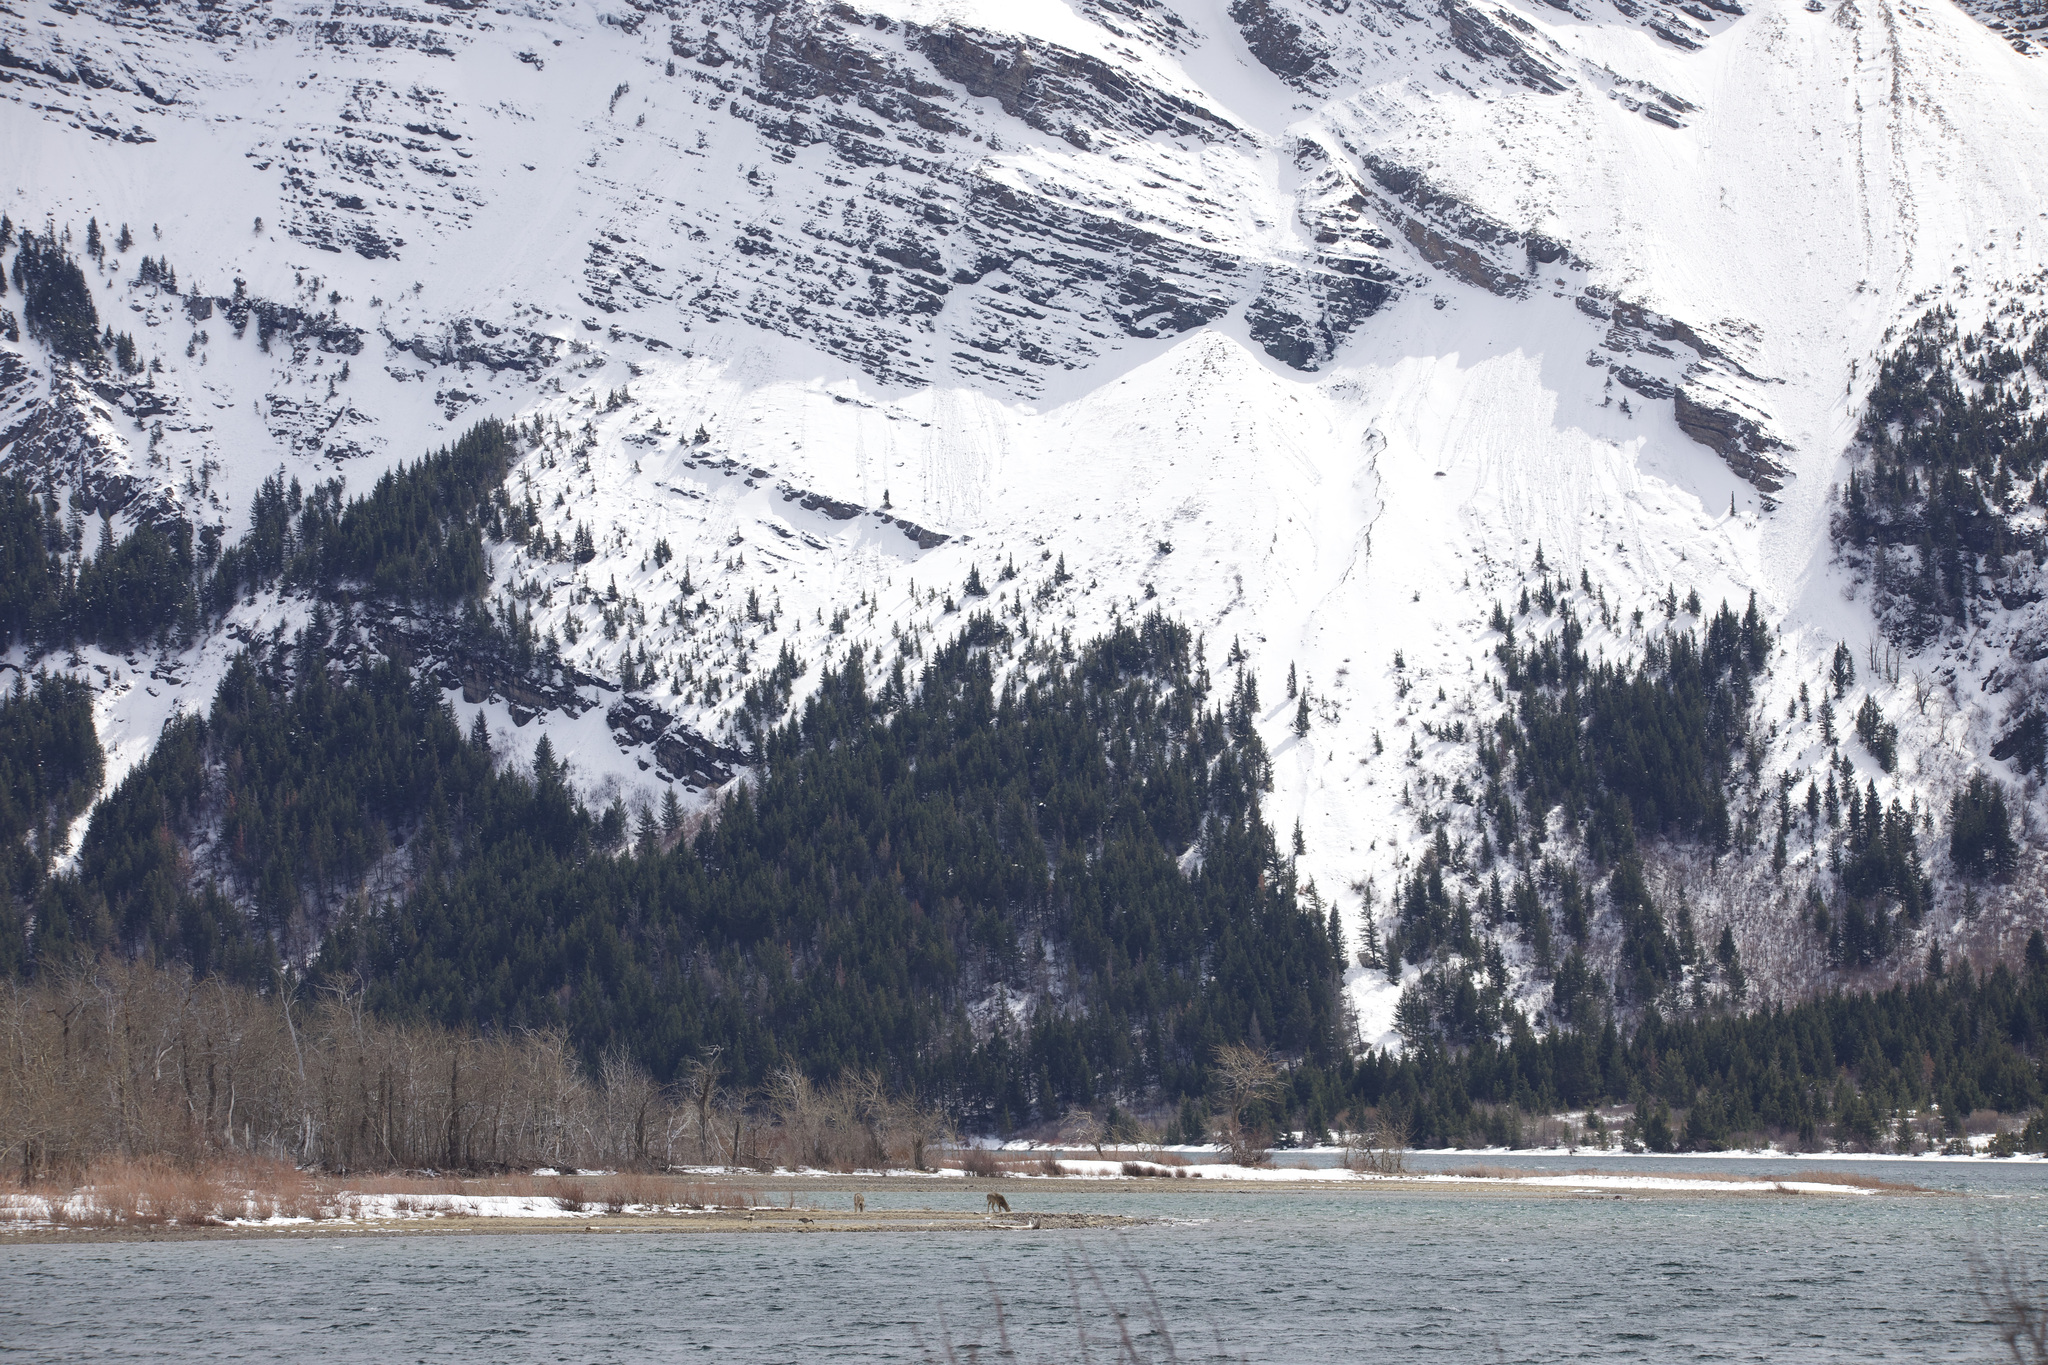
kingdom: Animalia
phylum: Chordata
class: Mammalia
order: Artiodactyla
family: Cervidae
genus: Odocoileus
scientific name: Odocoileus virginianus
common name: White-tailed deer
